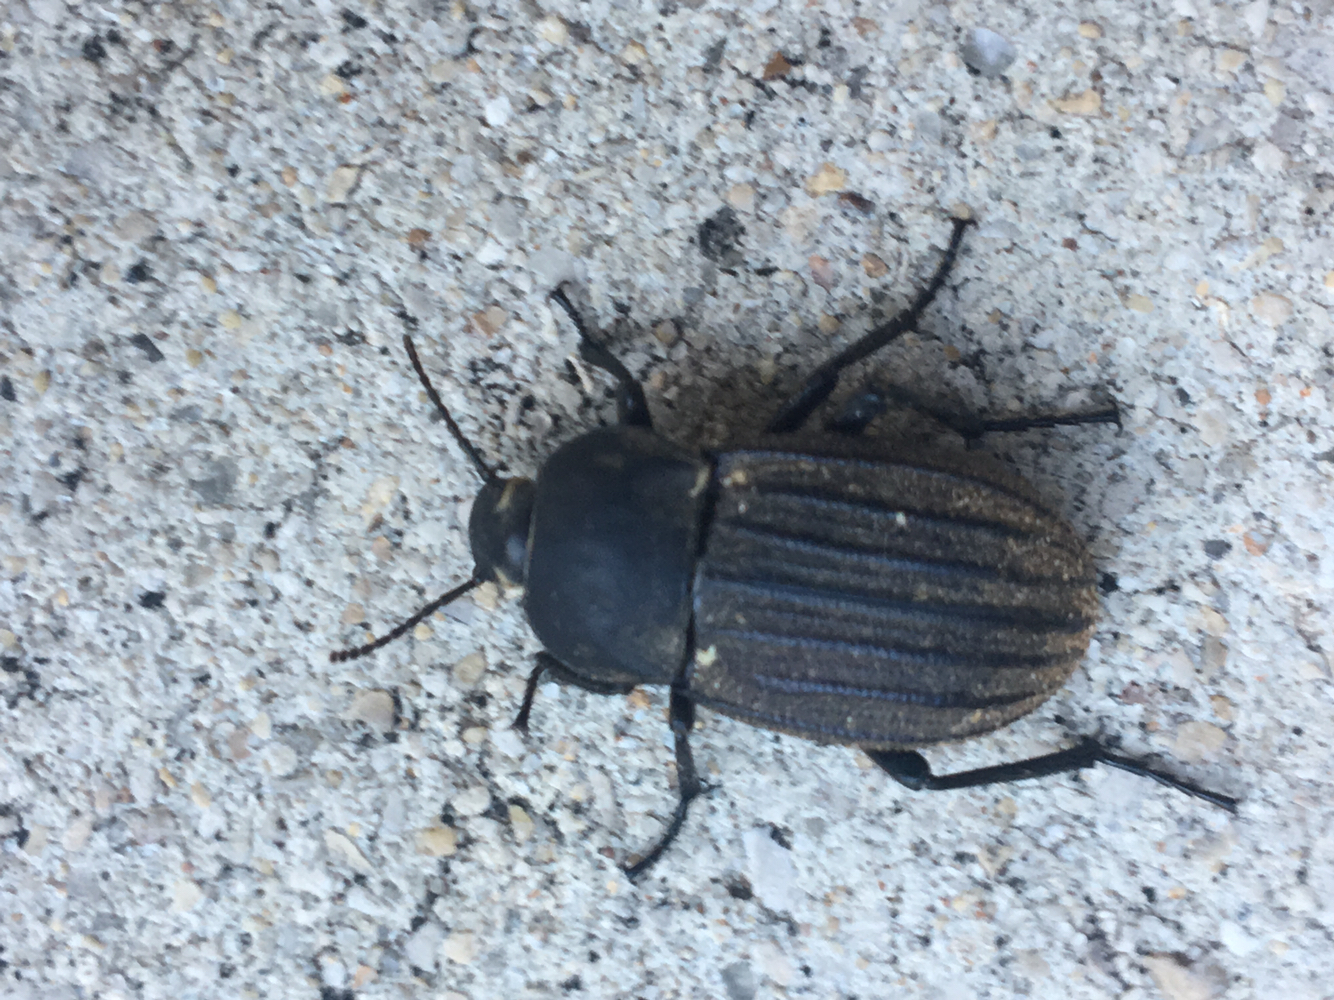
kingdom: Animalia
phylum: Arthropoda
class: Insecta
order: Coleoptera
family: Tenebrionidae
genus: Eleodes
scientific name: Eleodes tricostata
